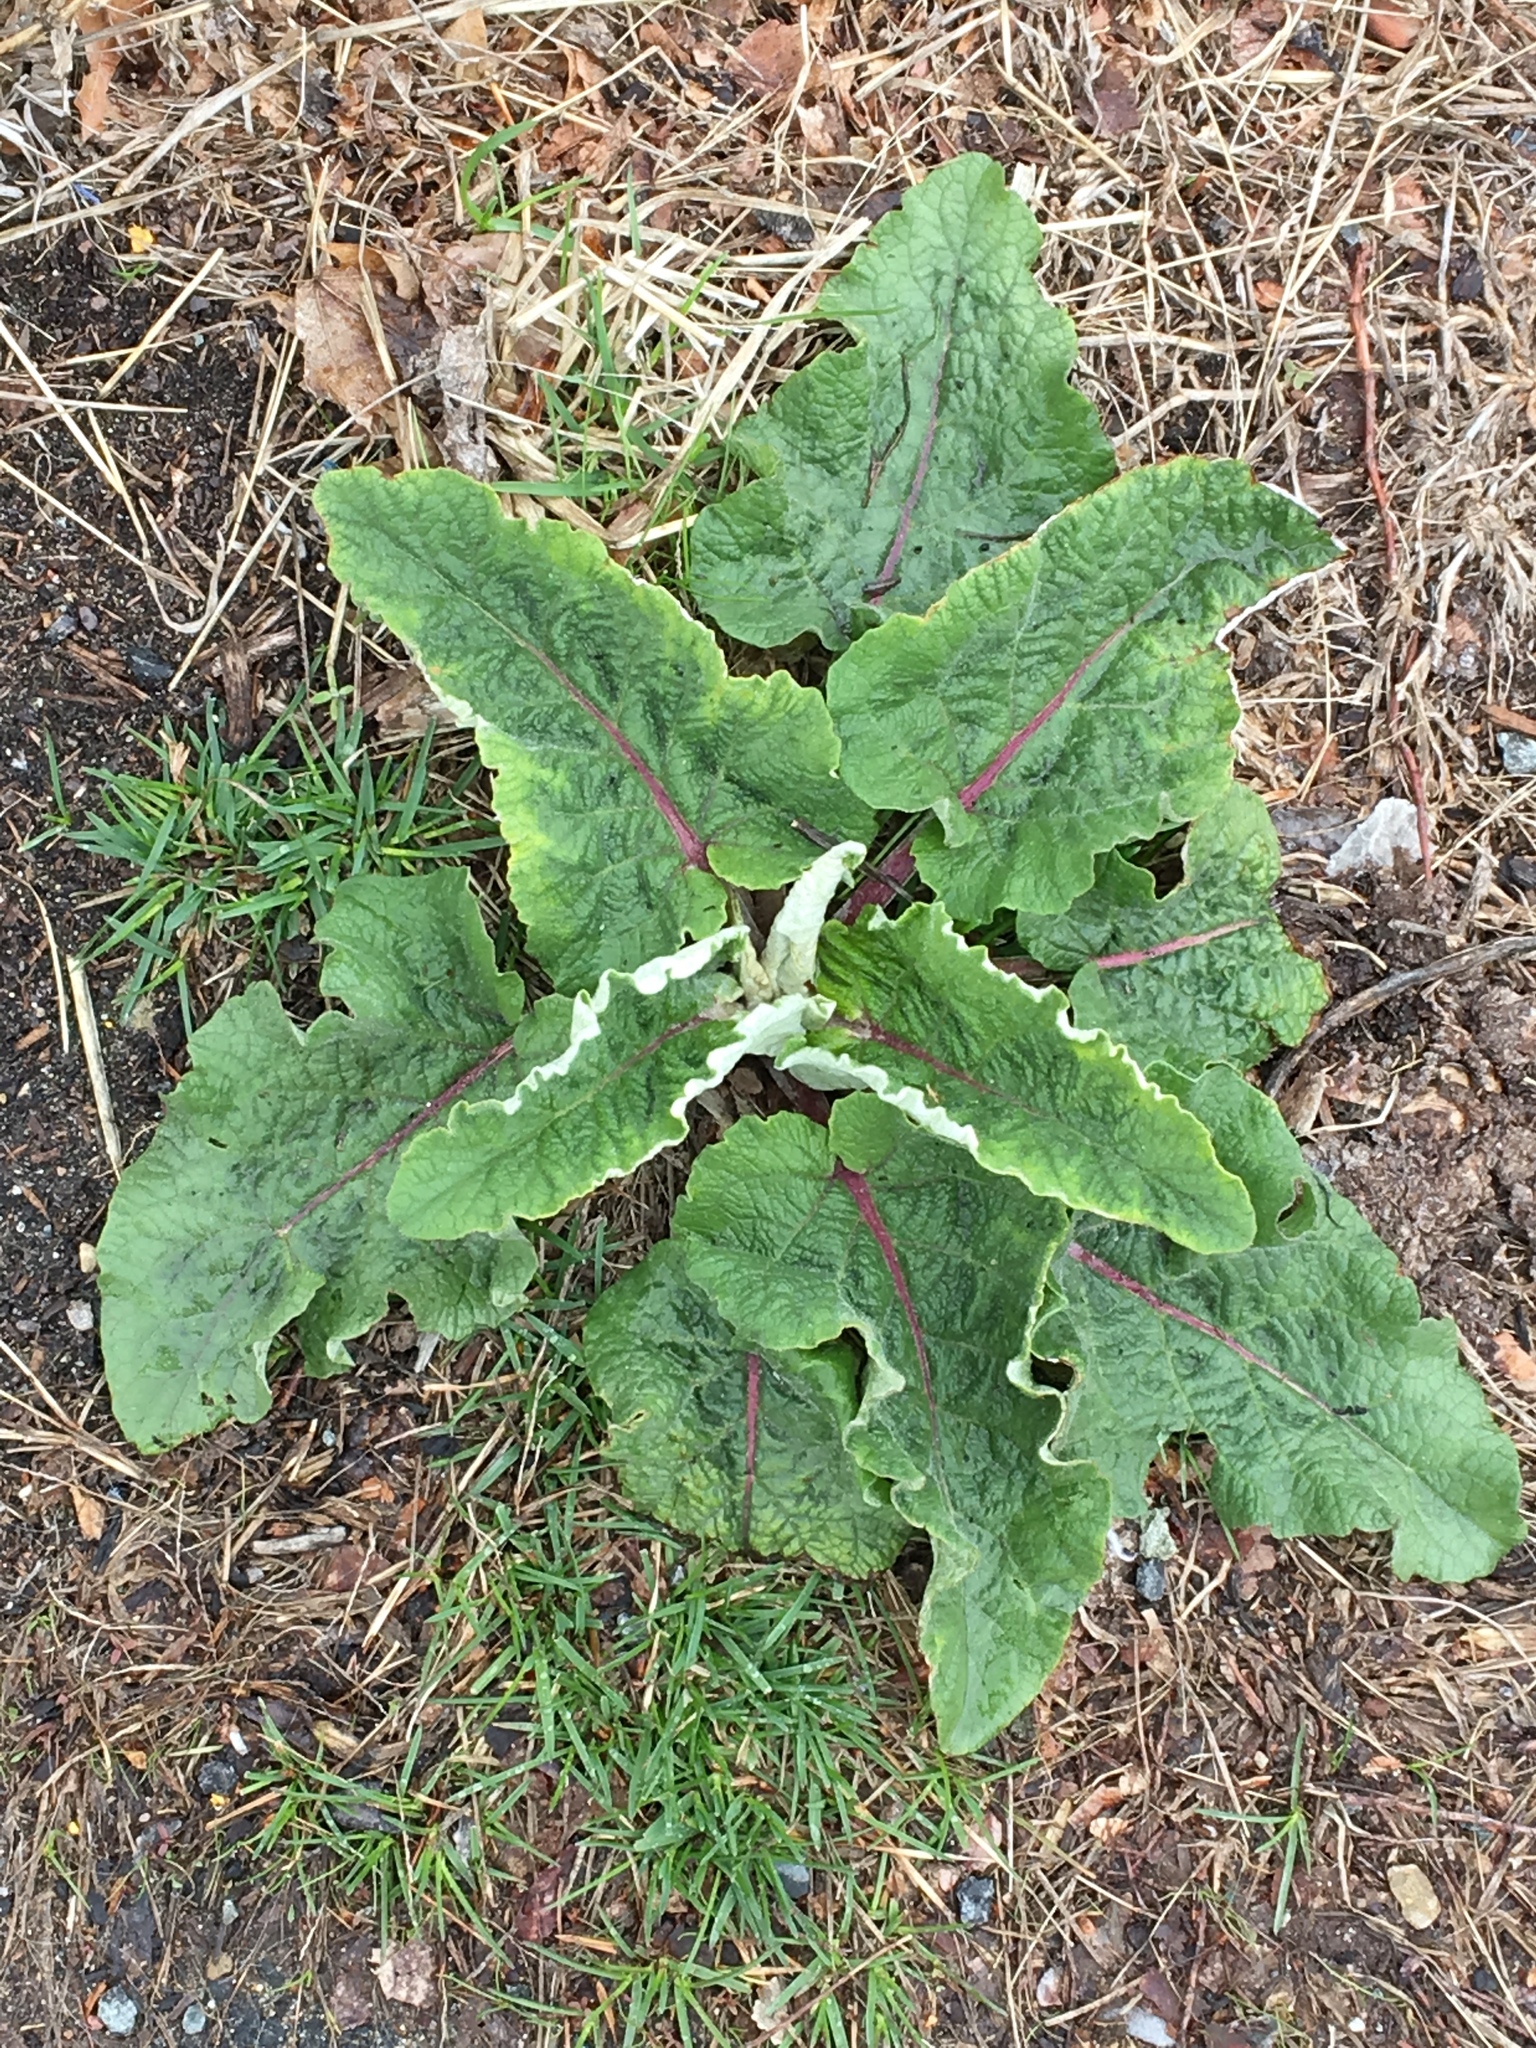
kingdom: Plantae
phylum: Tracheophyta
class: Magnoliopsida
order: Asterales
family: Asteraceae
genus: Arctium
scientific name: Arctium
